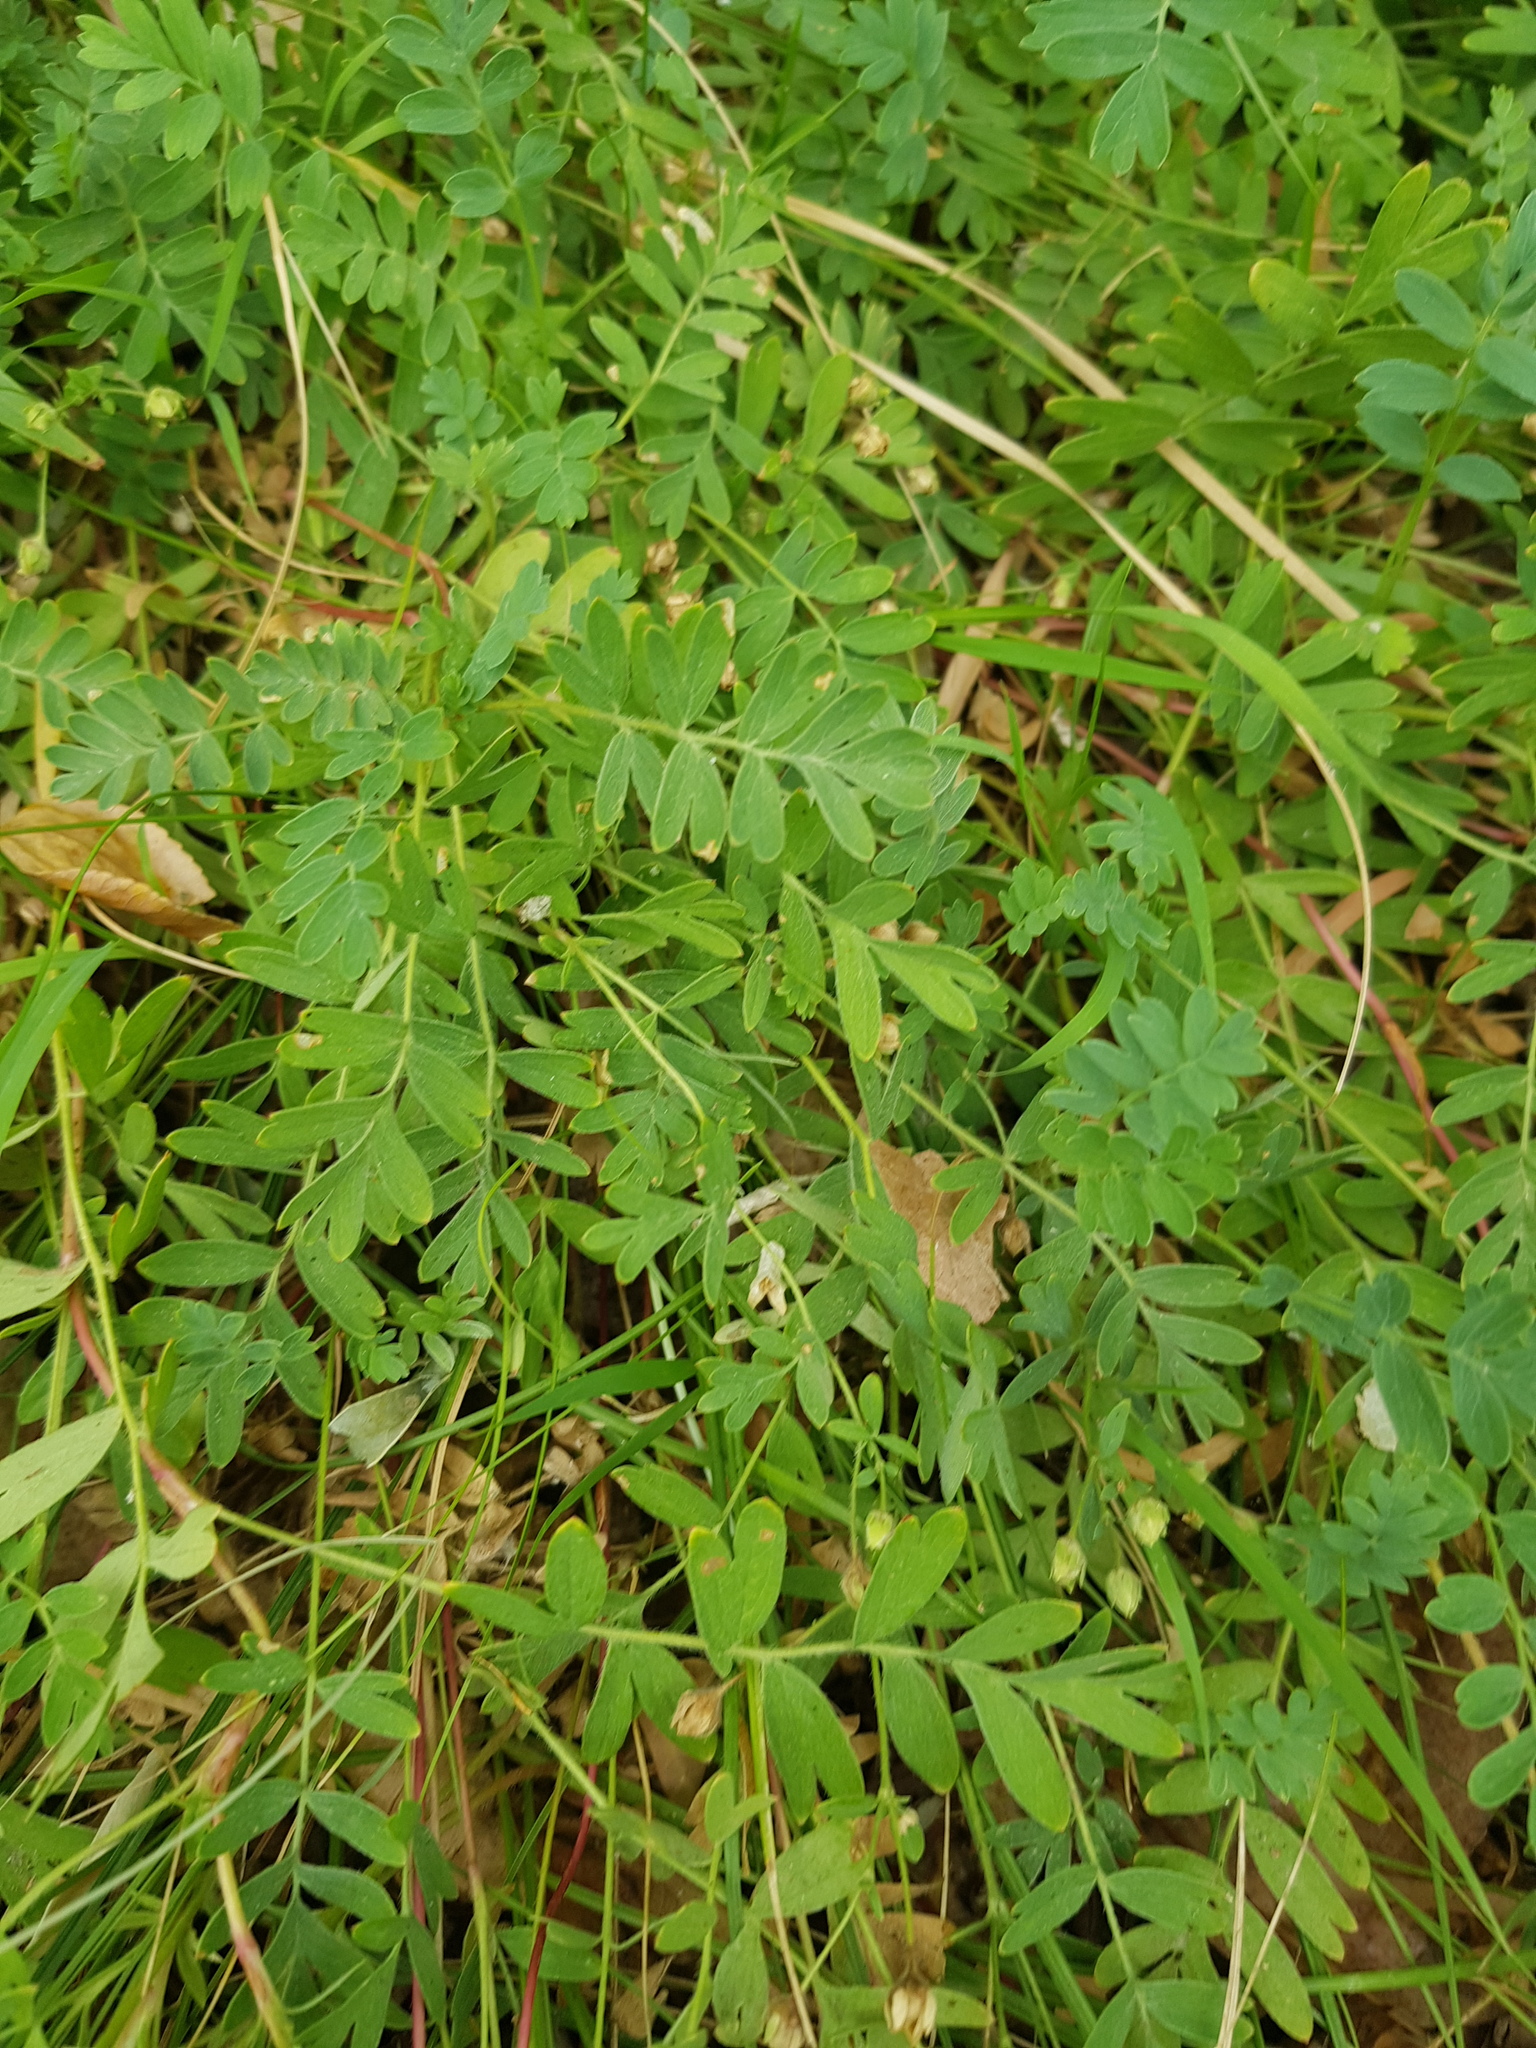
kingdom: Plantae
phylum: Tracheophyta
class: Magnoliopsida
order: Rosales
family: Rosaceae
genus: Sibbaldianthe
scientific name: Sibbaldianthe bifurca
